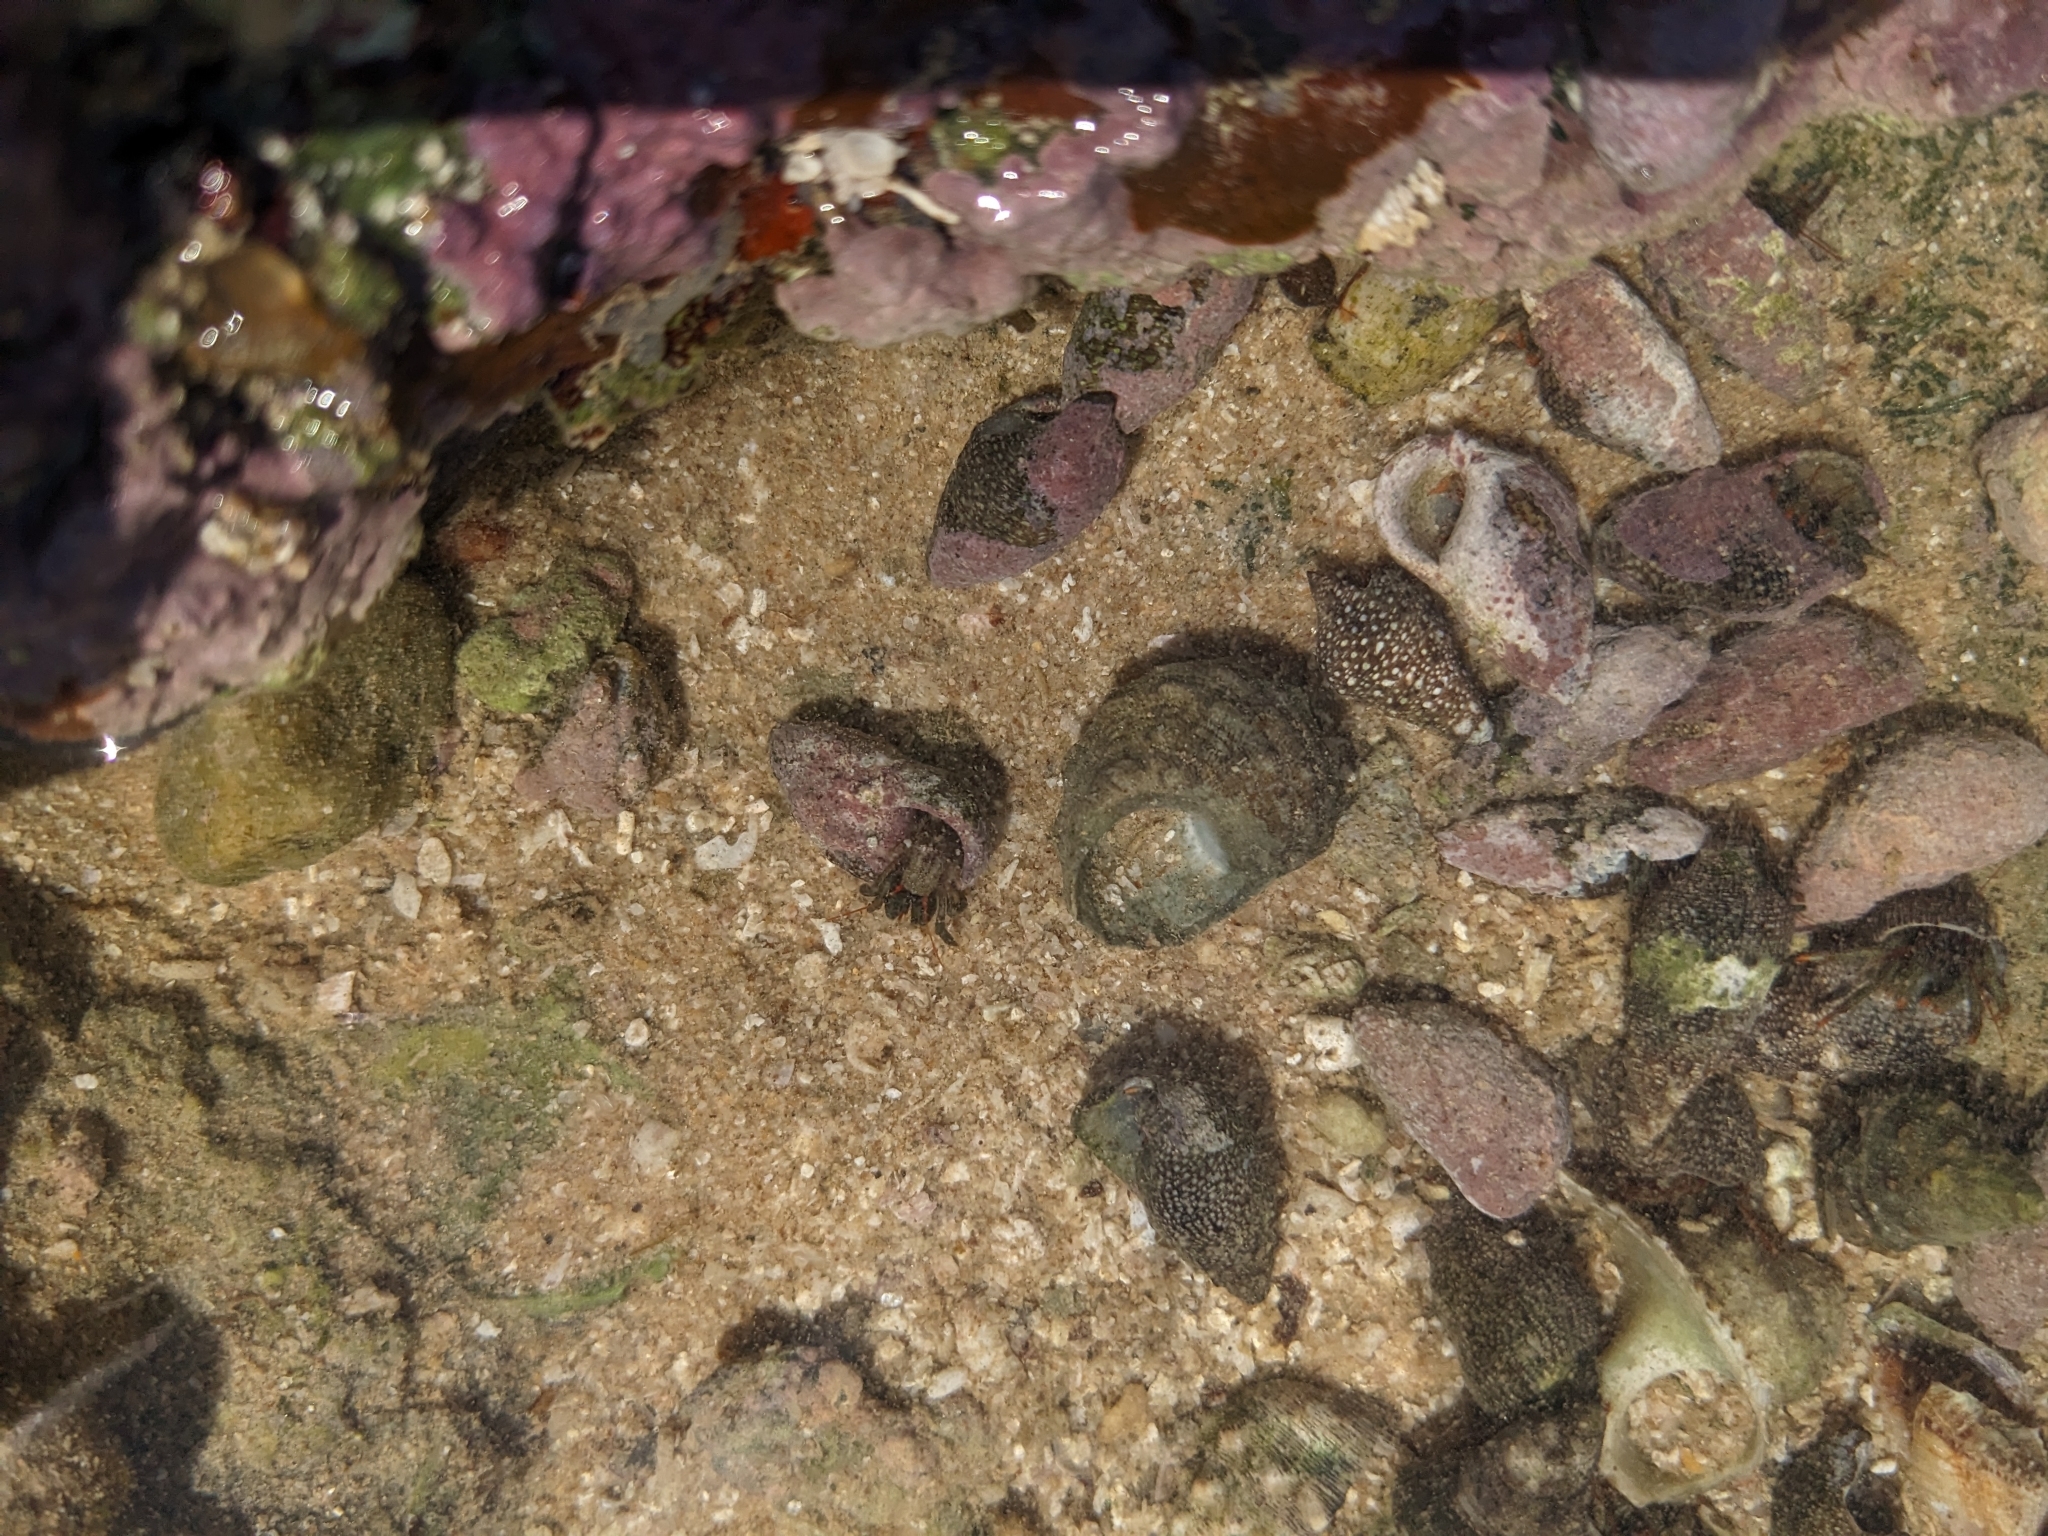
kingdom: Animalia
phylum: Arthropoda
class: Malacostraca
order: Decapoda
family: Diogenidae
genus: Clibanarius
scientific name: Clibanarius albidigitus
